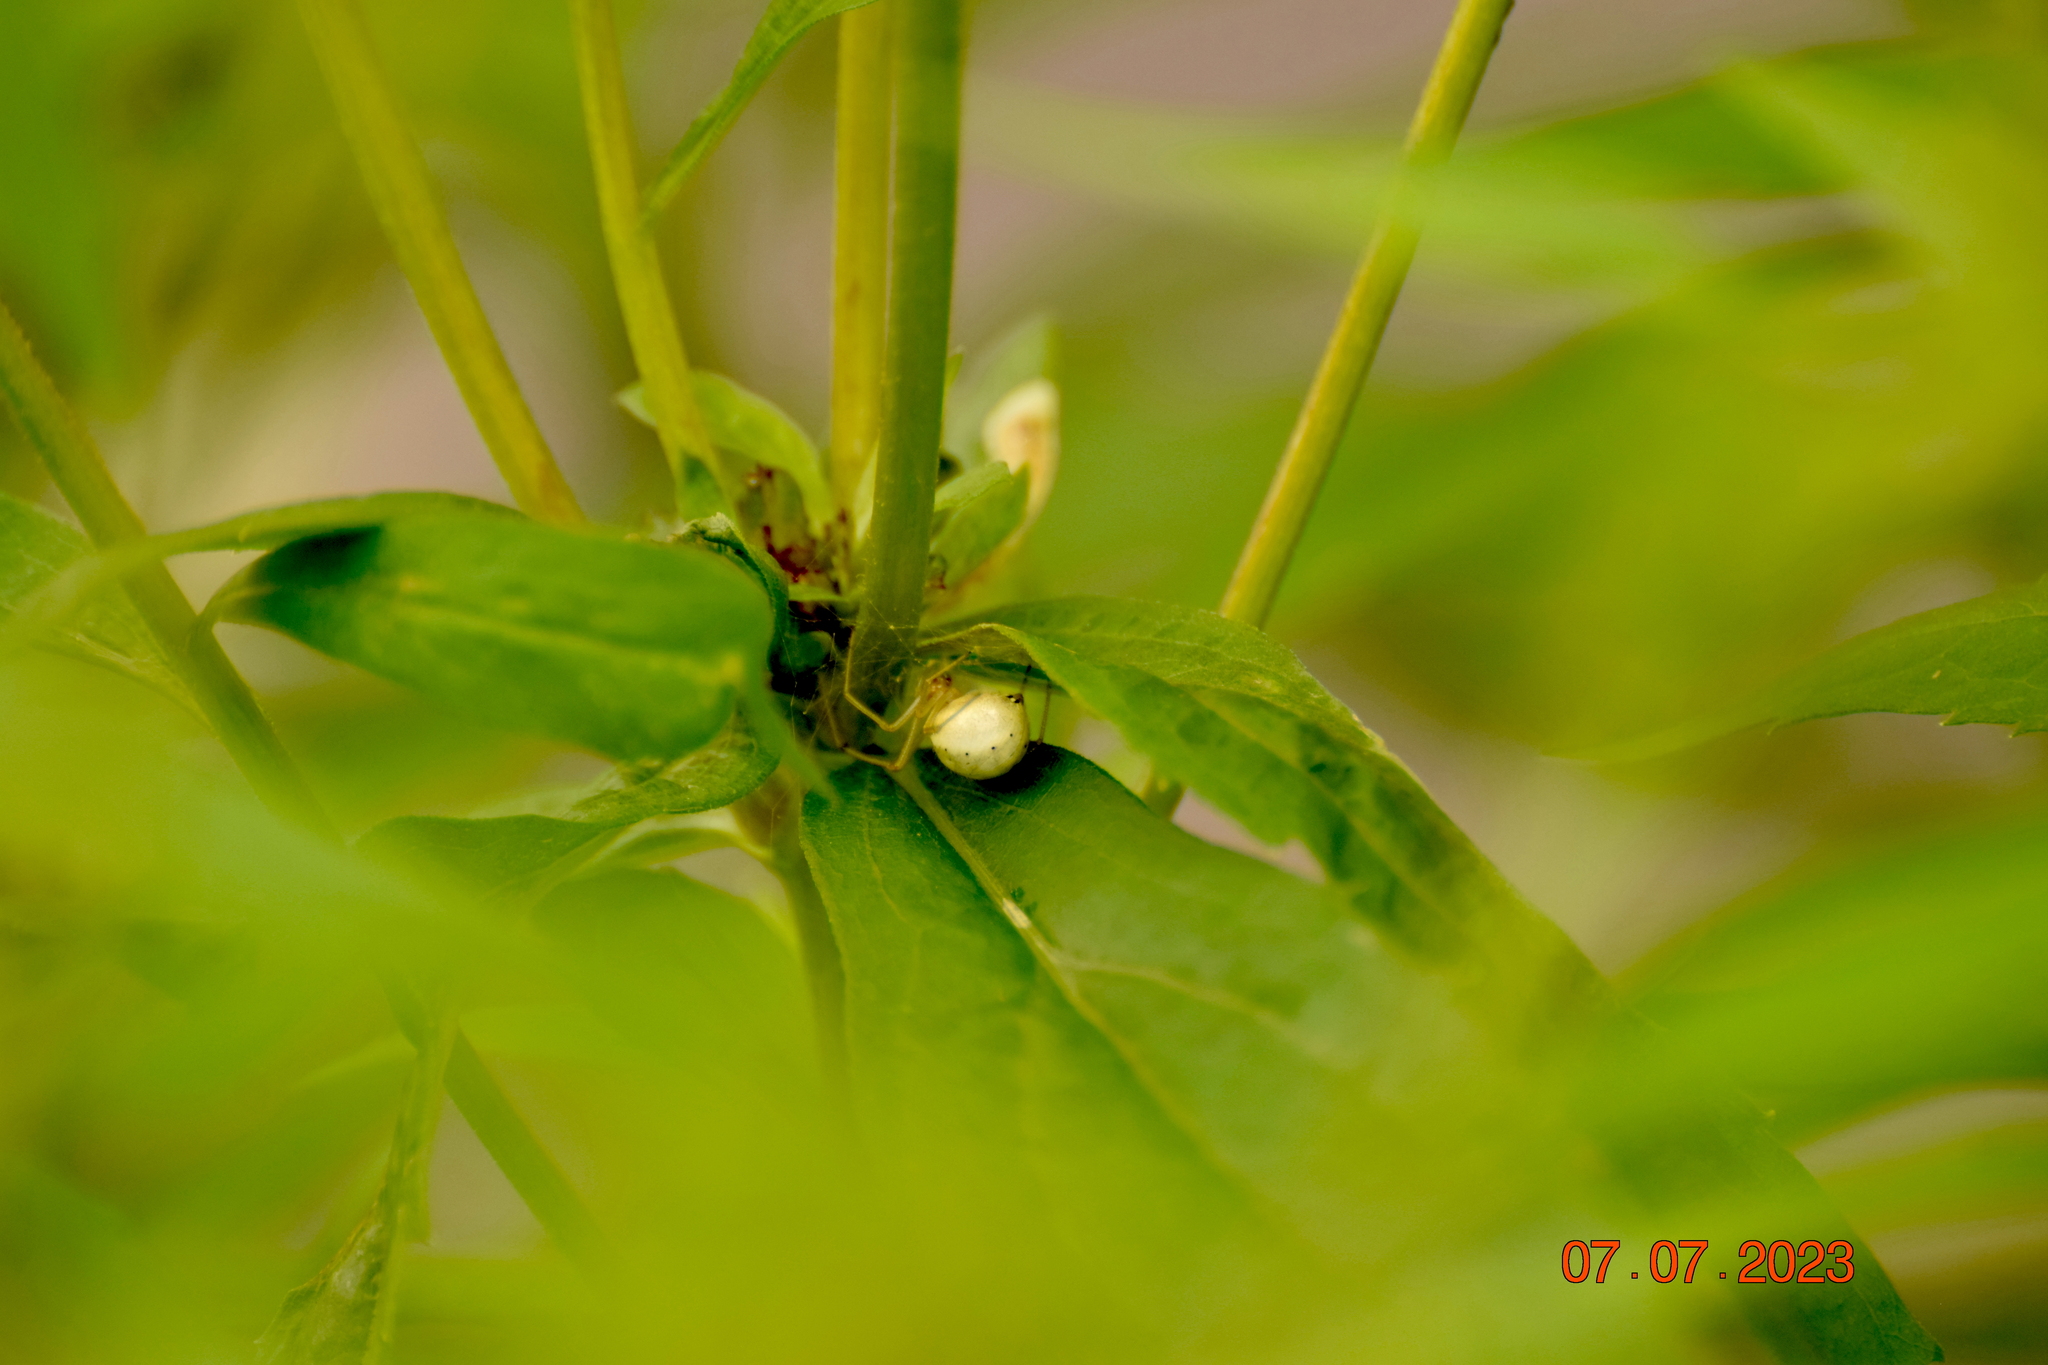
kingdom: Animalia
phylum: Arthropoda
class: Arachnida
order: Araneae
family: Theridiidae
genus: Enoplognatha
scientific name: Enoplognatha ovata
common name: Common candy-striped spider
